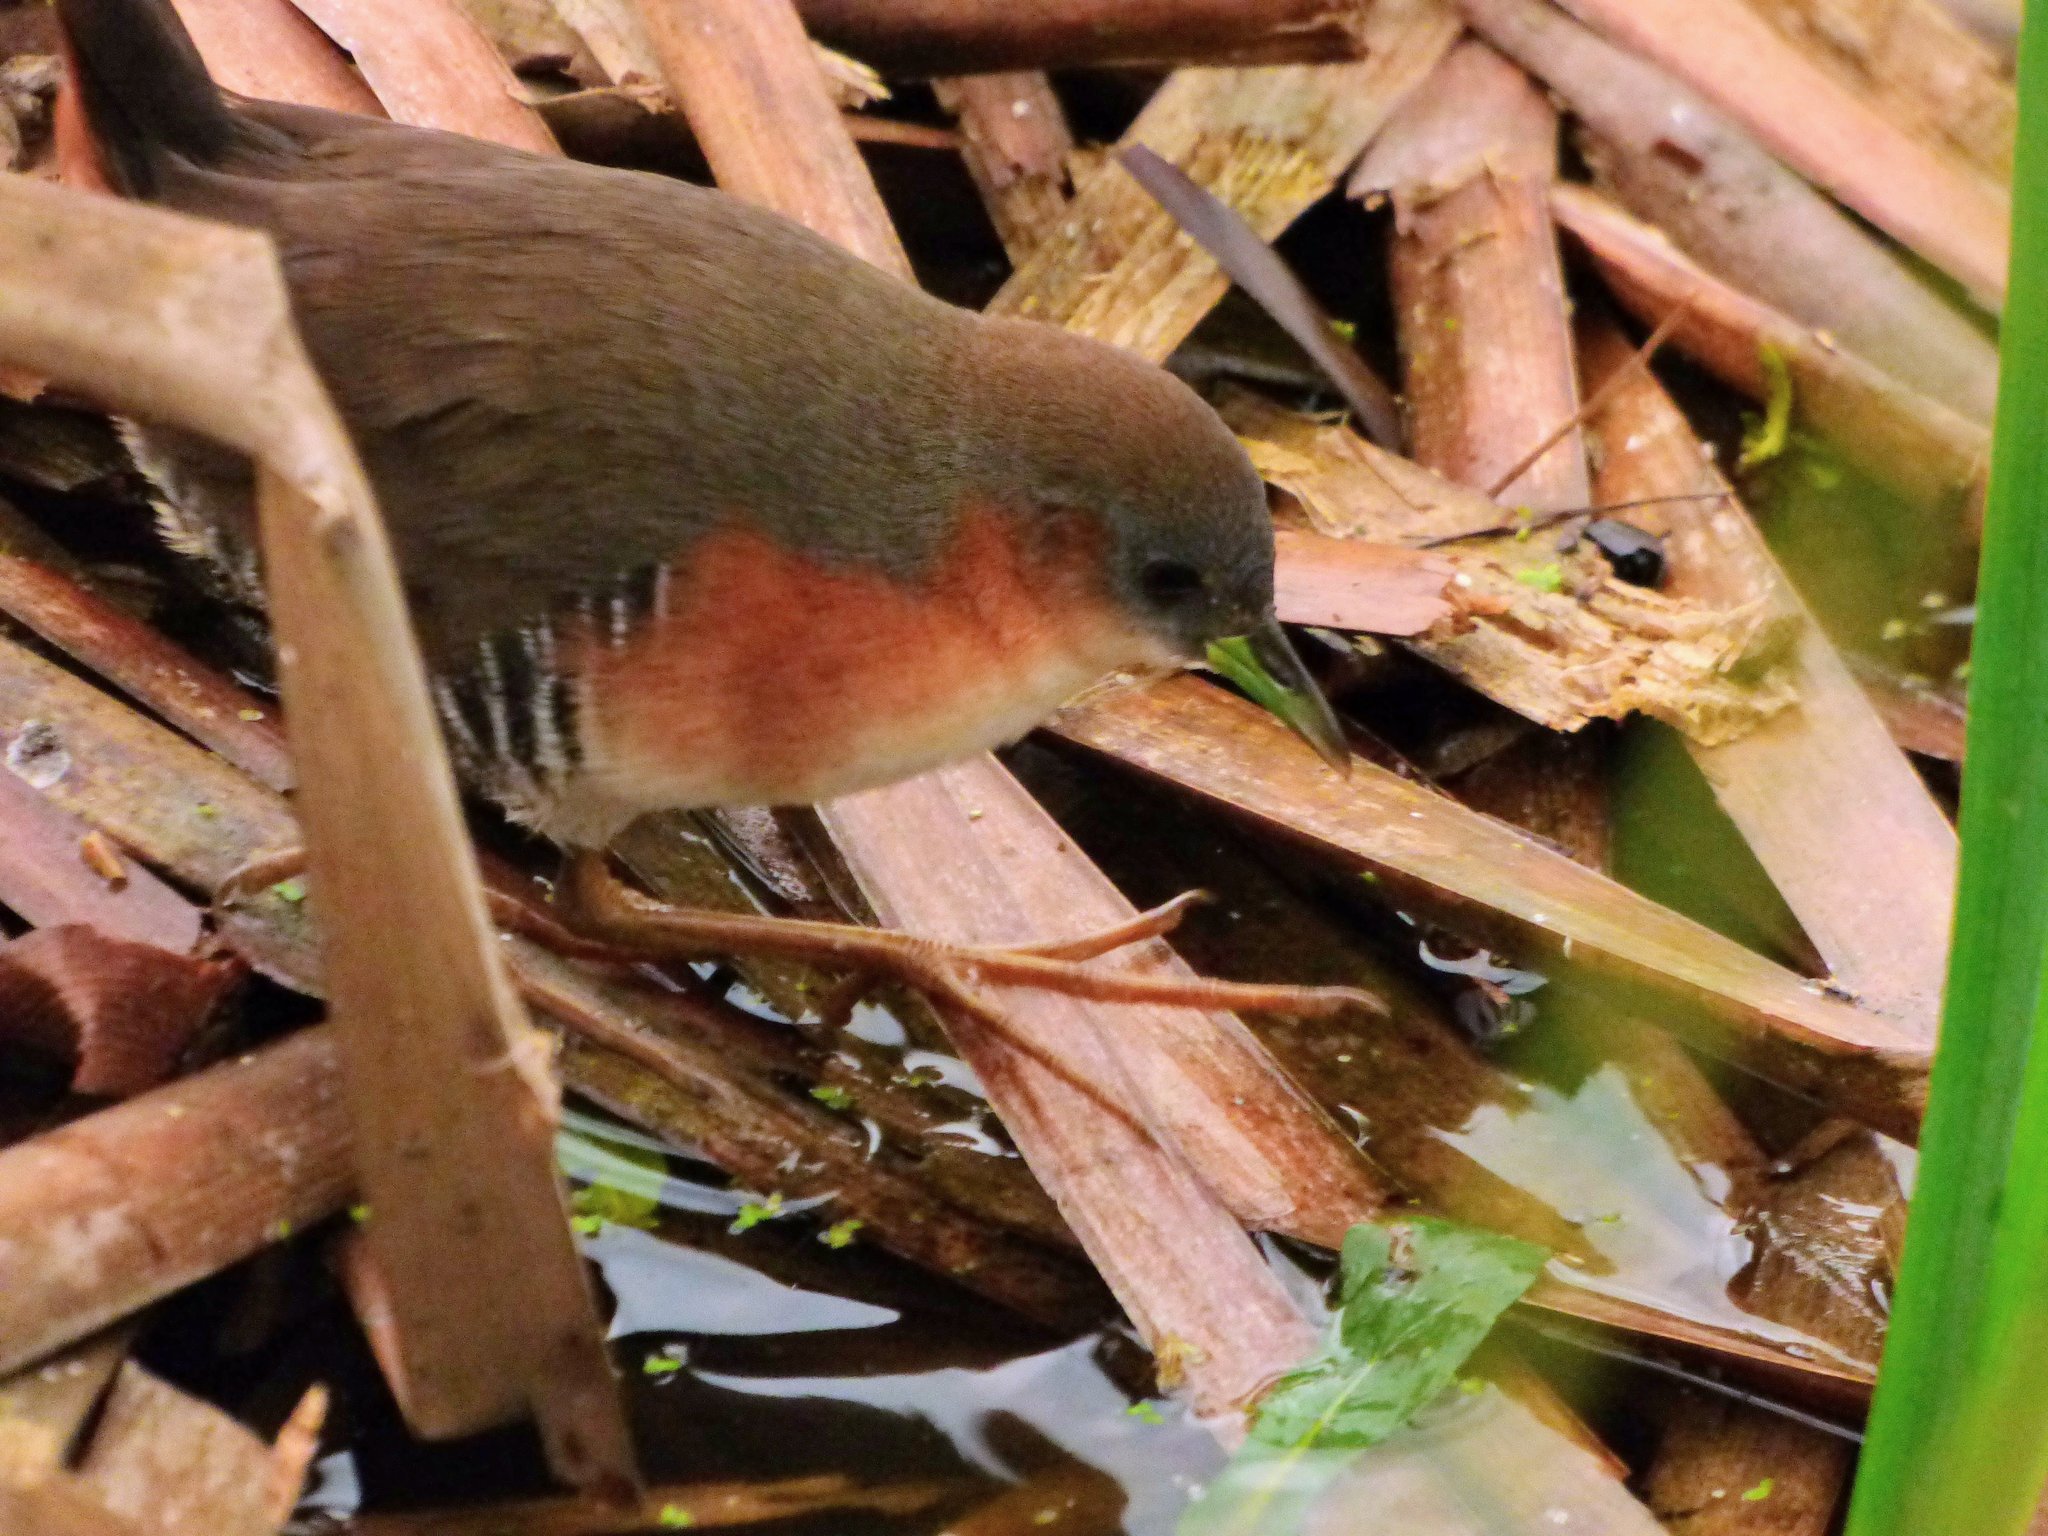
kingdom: Animalia
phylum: Chordata
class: Aves
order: Gruiformes
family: Rallidae
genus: Laterallus
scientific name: Laterallus melanophaius
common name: Rufous-sided crake
